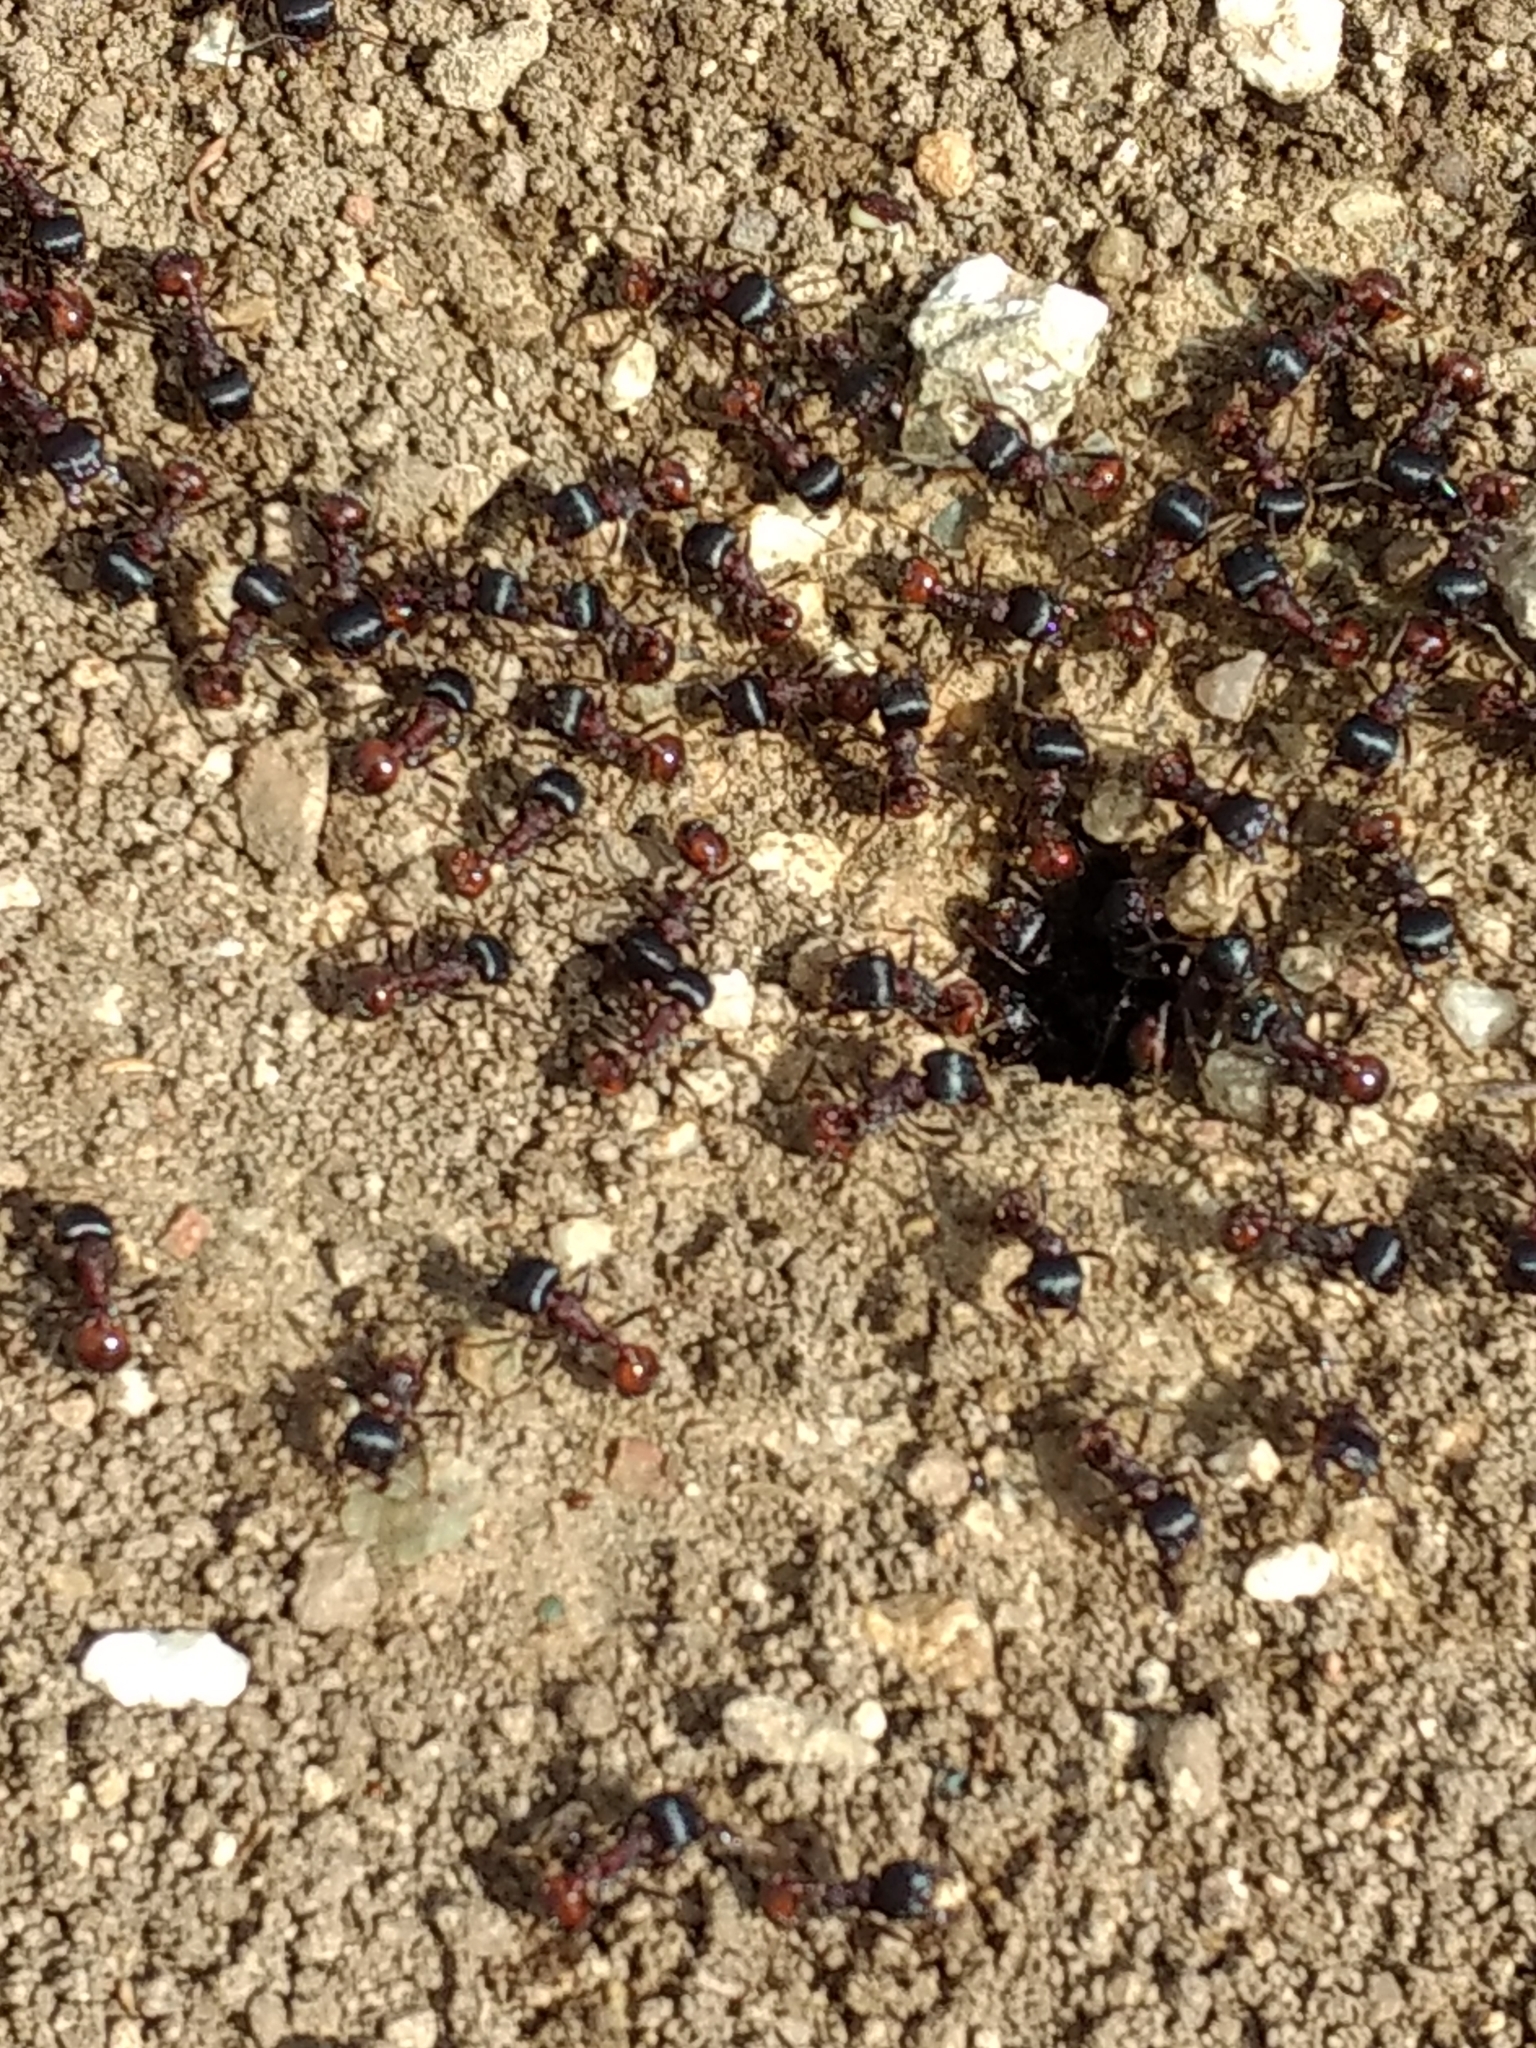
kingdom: Animalia
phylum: Arthropoda
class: Insecta
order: Hymenoptera
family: Formicidae
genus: Pogonomyrmex
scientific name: Pogonomyrmex rugosus
